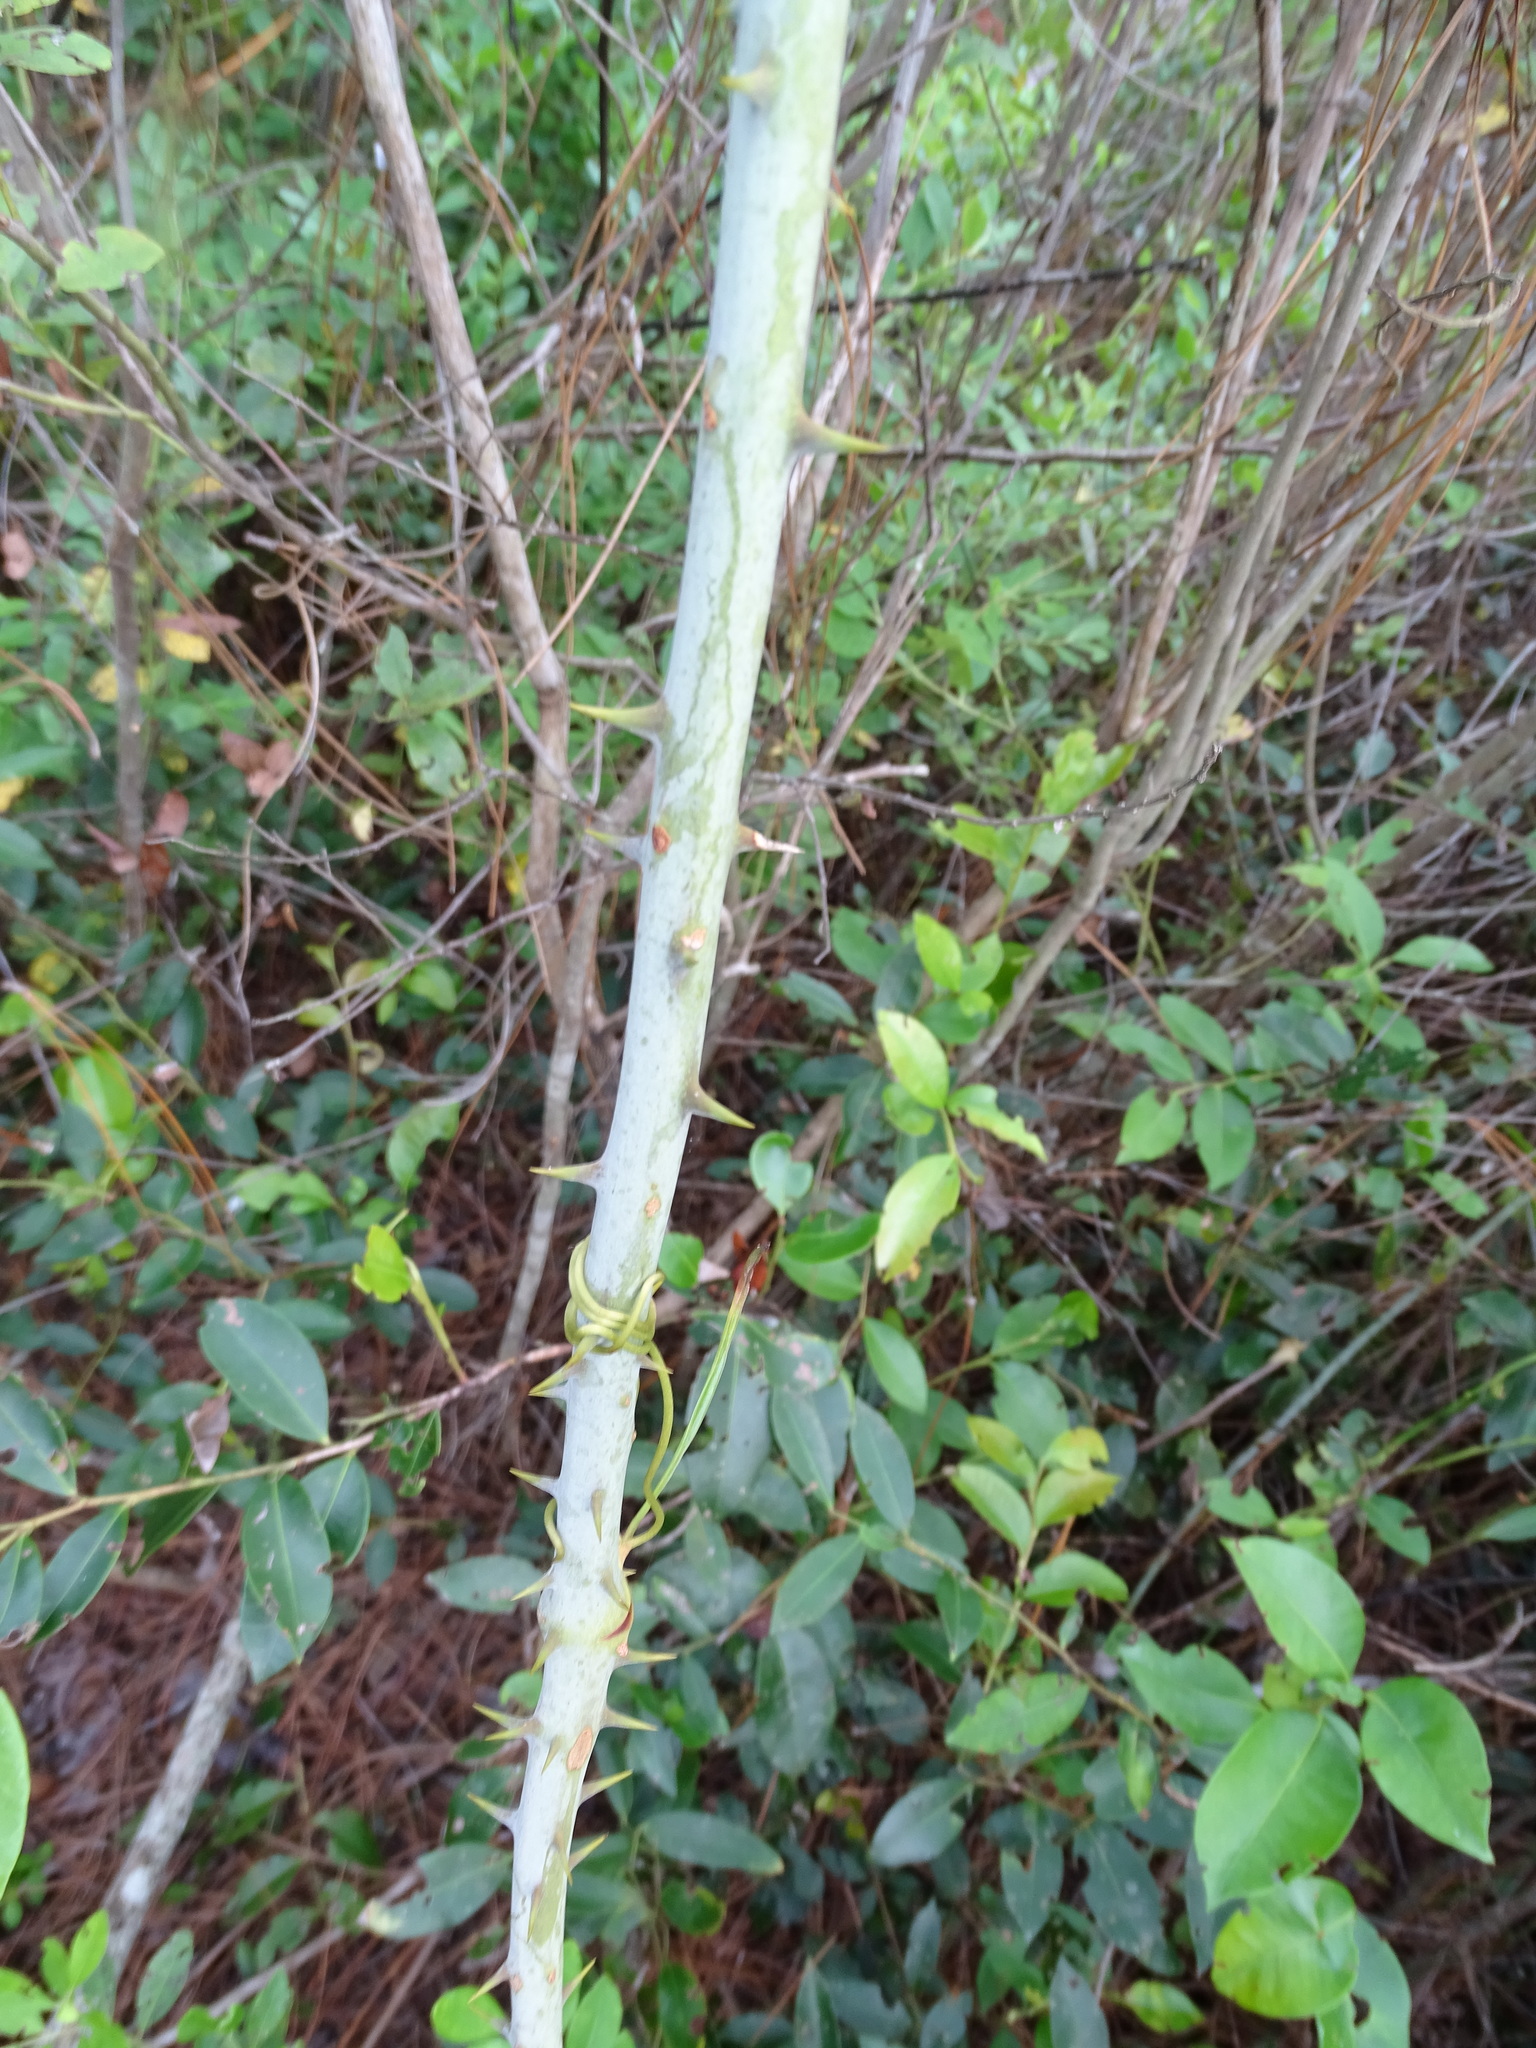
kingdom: Plantae
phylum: Tracheophyta
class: Liliopsida
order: Liliales
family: Smilacaceae
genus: Smilax
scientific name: Smilax laurifolia
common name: Bamboovine
